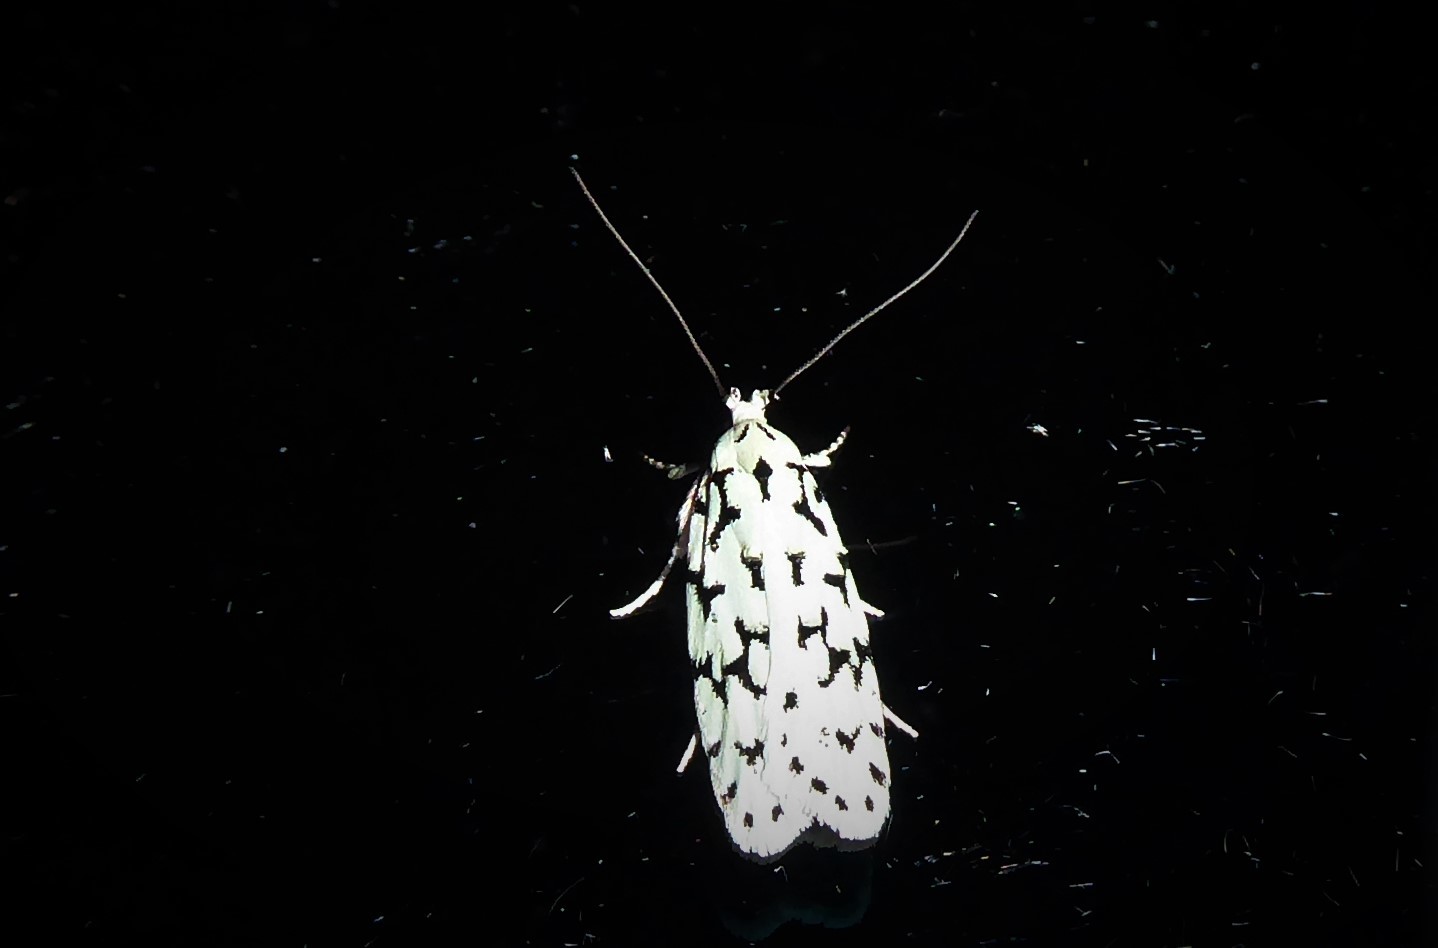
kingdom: Animalia
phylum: Arthropoda
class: Insecta
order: Lepidoptera
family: Oecophoridae
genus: Izatha
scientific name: Izatha huttoni
